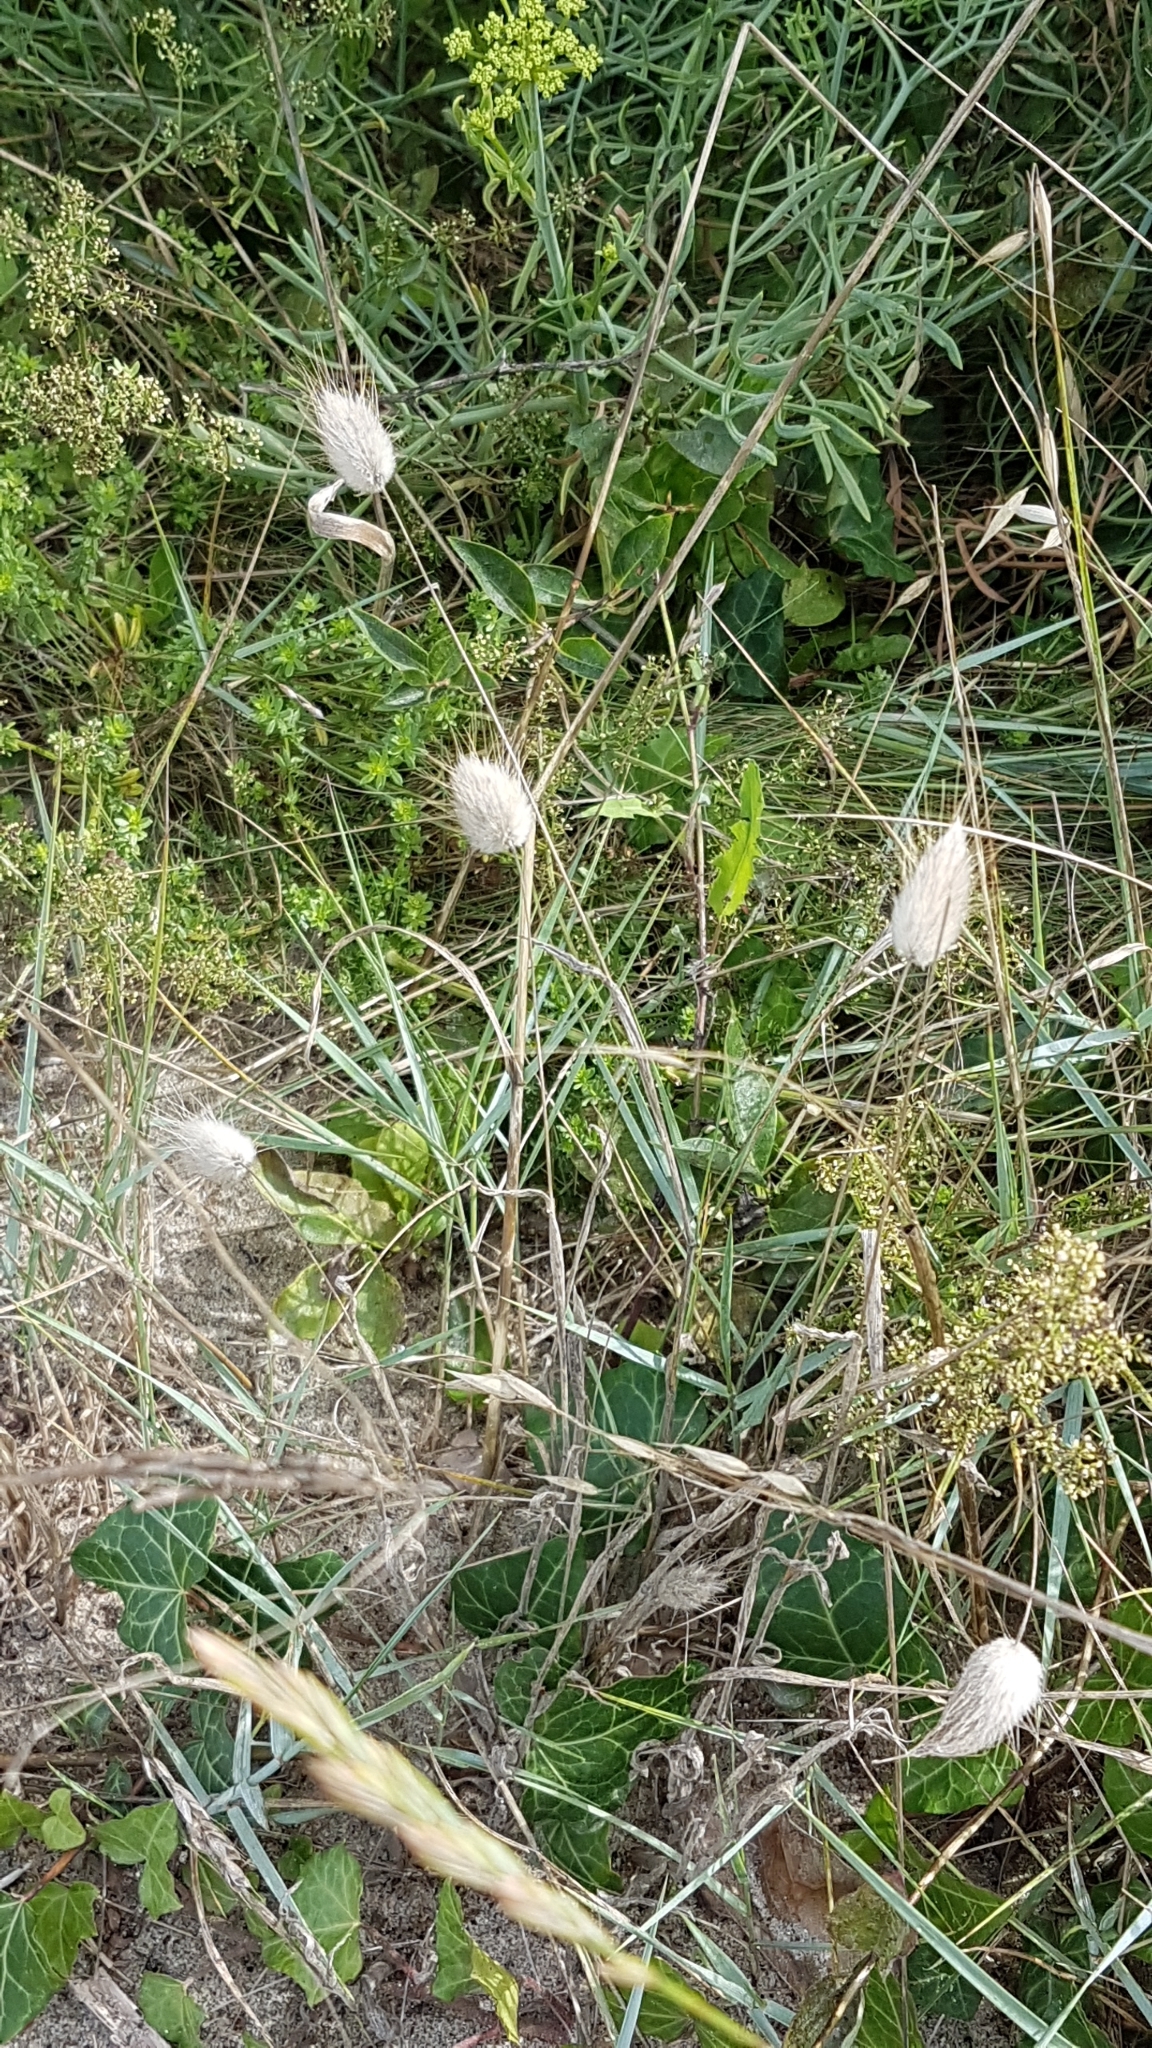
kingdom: Plantae
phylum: Tracheophyta
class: Liliopsida
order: Poales
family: Poaceae
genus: Lagurus
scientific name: Lagurus ovatus
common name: Hare's-tail
